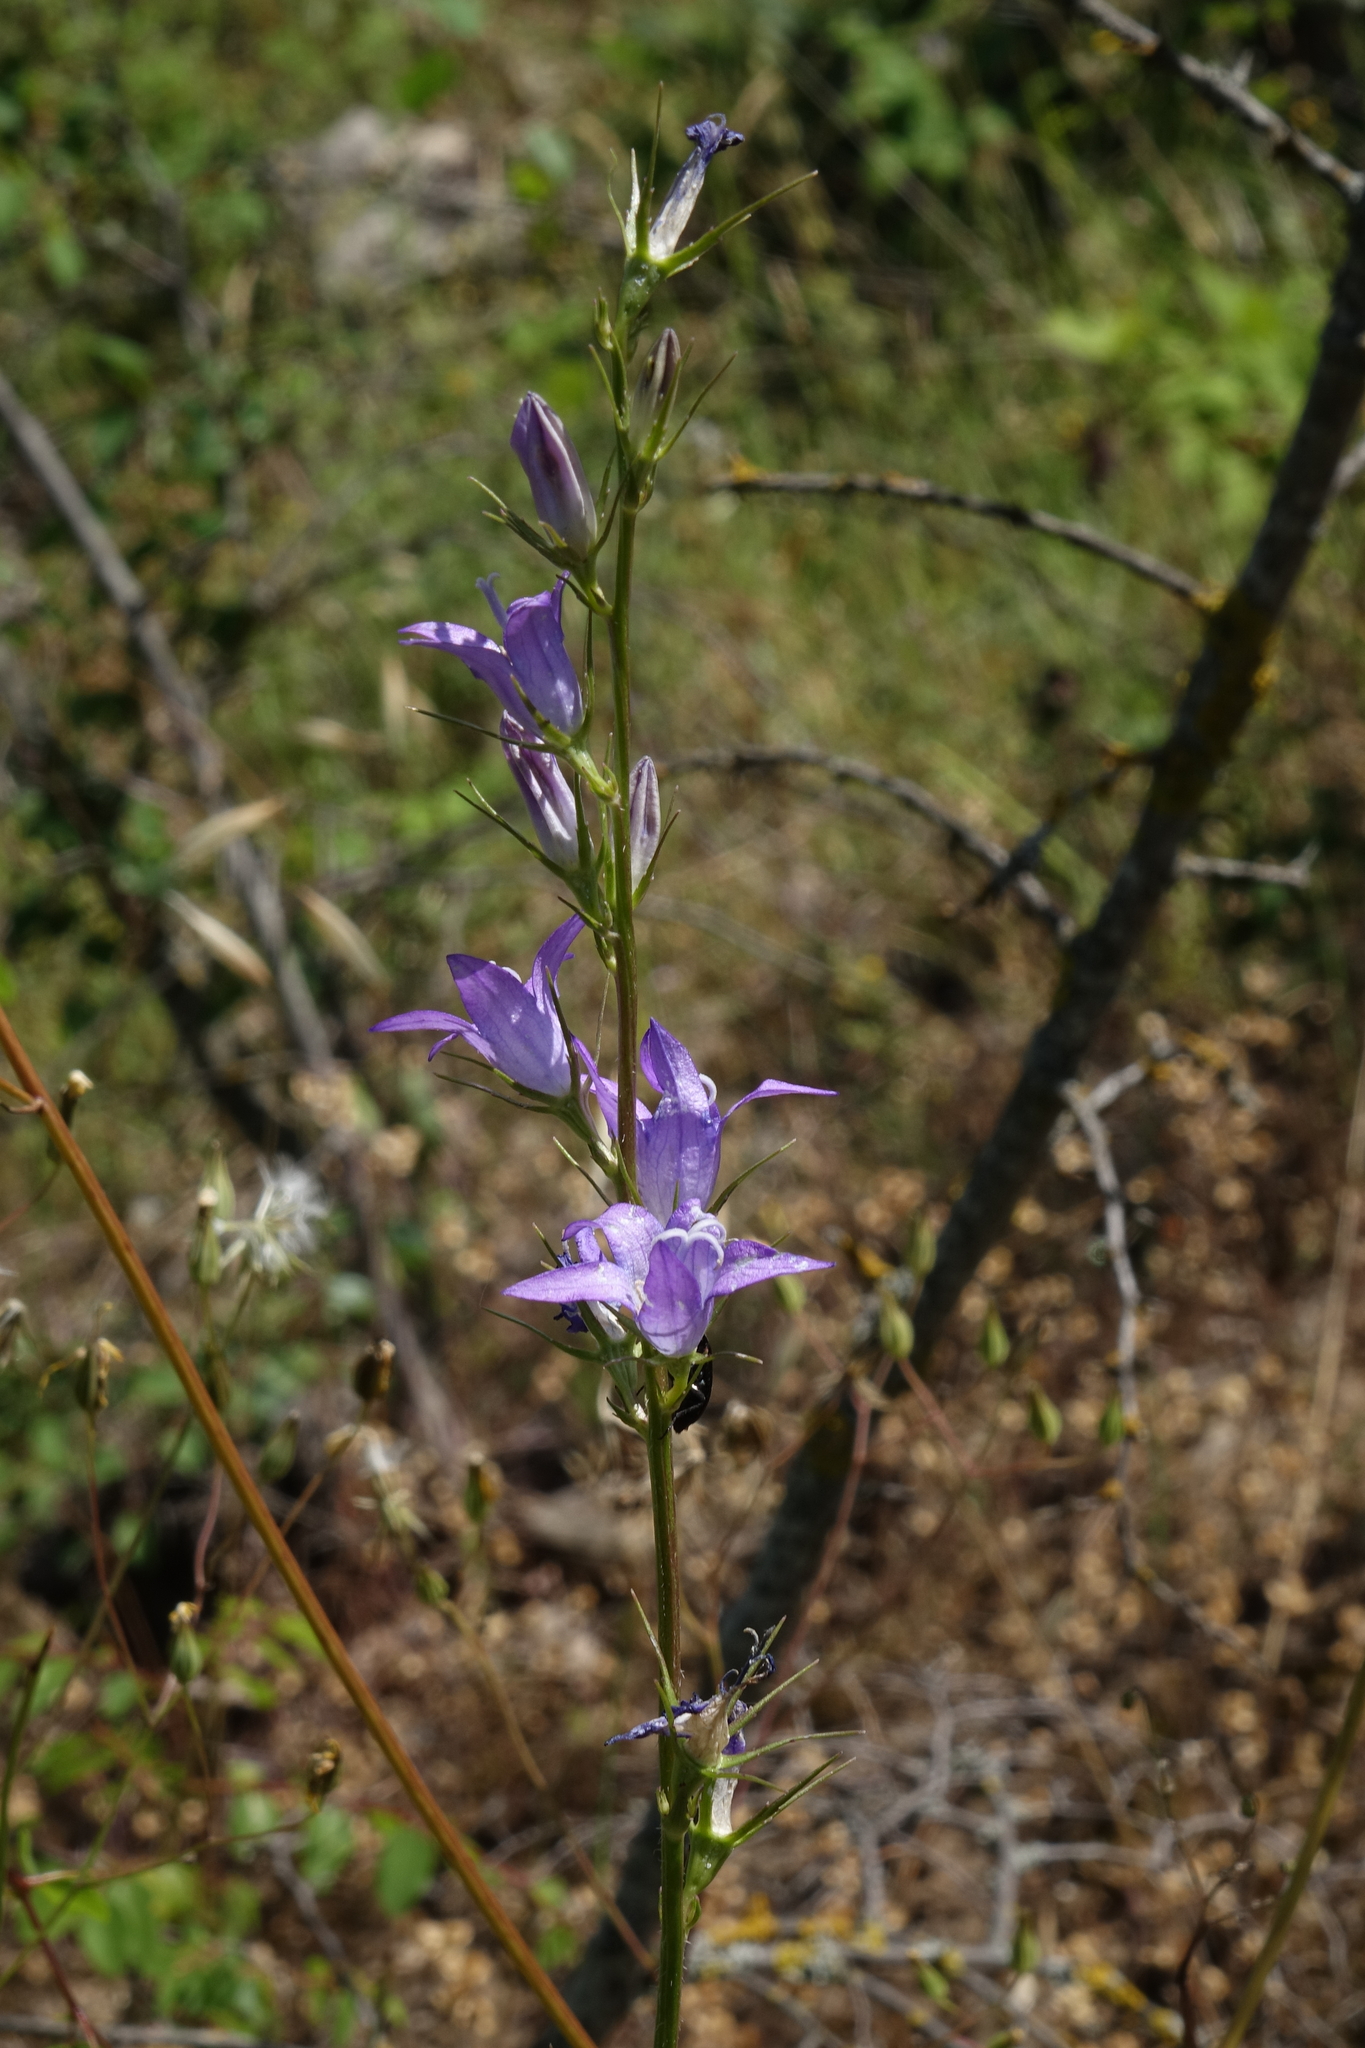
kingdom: Plantae
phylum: Tracheophyta
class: Magnoliopsida
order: Asterales
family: Campanulaceae
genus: Campanula
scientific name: Campanula rapunculus
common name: Rampion bellflower
